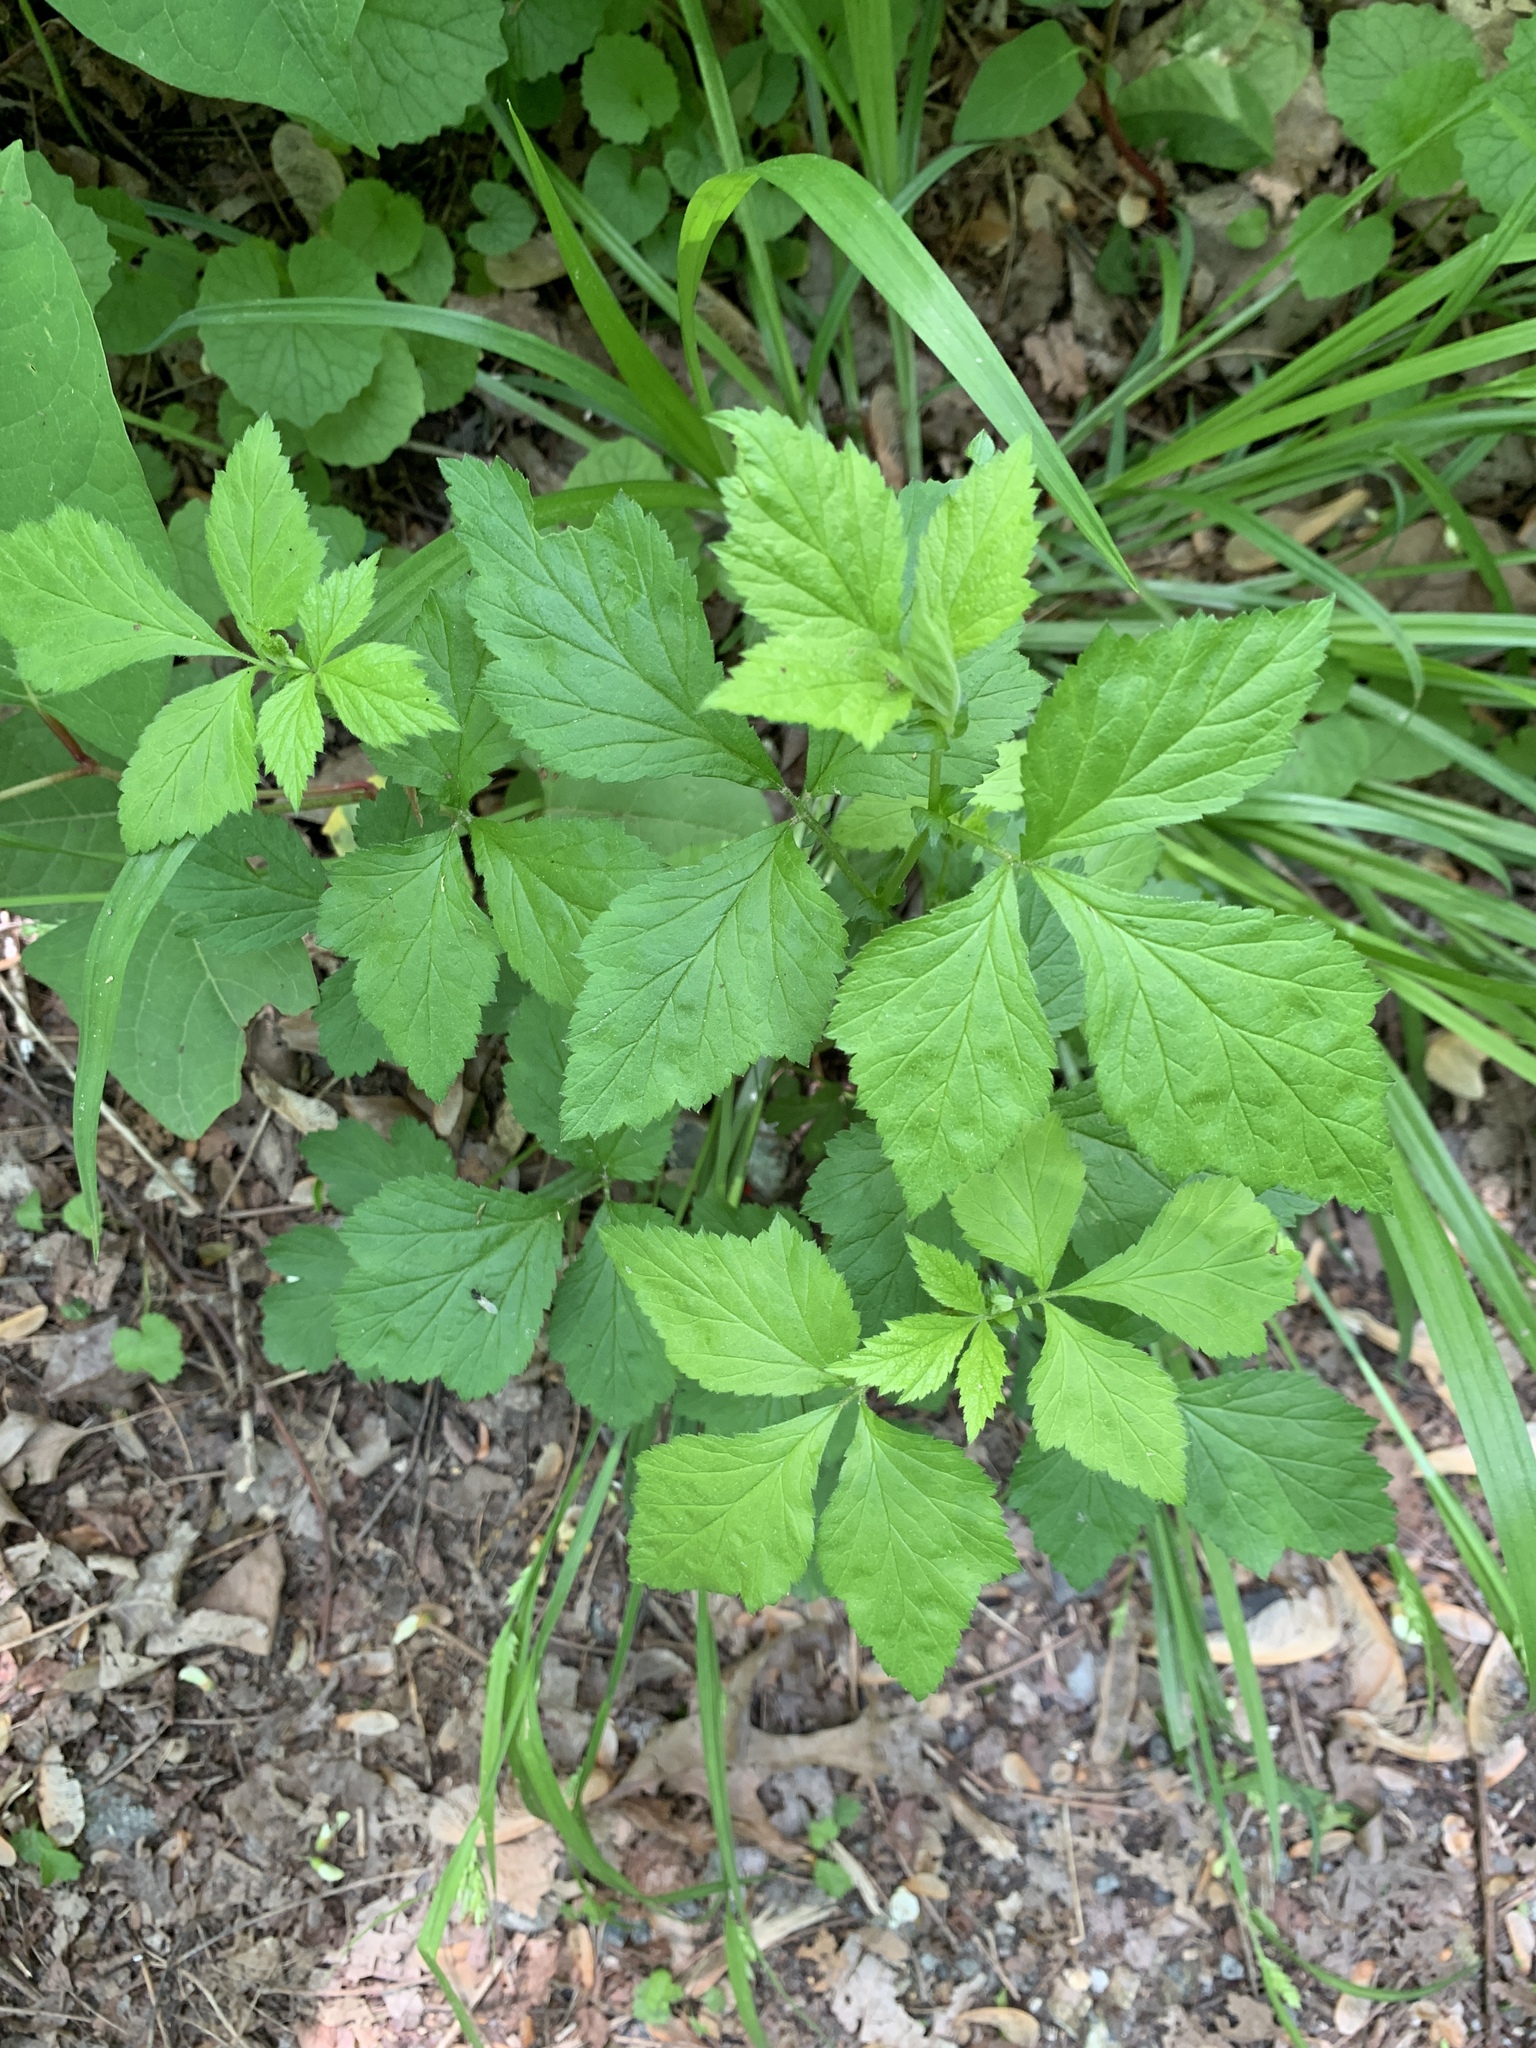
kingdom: Plantae
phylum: Tracheophyta
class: Magnoliopsida
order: Rosales
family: Rosaceae
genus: Geum
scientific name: Geum canadense
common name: White avens
